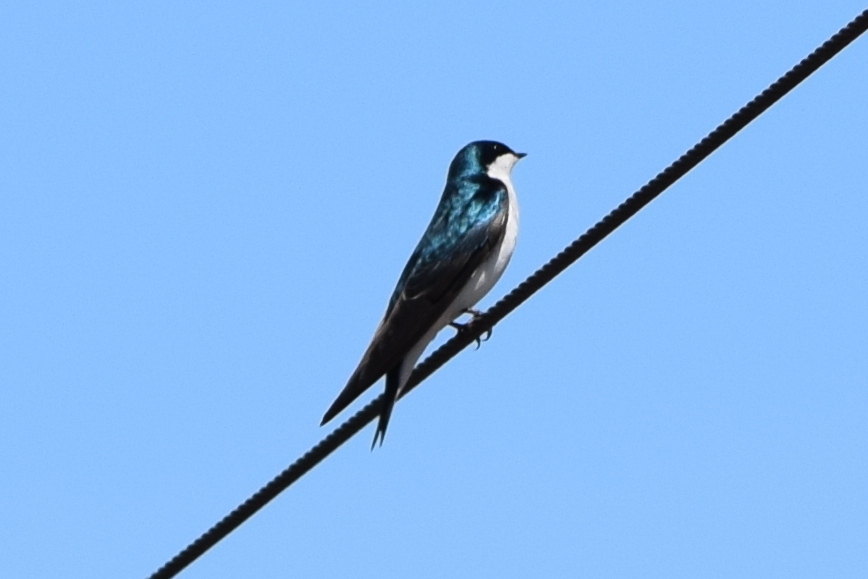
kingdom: Animalia
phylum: Chordata
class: Aves
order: Passeriformes
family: Hirundinidae
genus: Tachycineta
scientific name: Tachycineta bicolor
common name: Tree swallow
